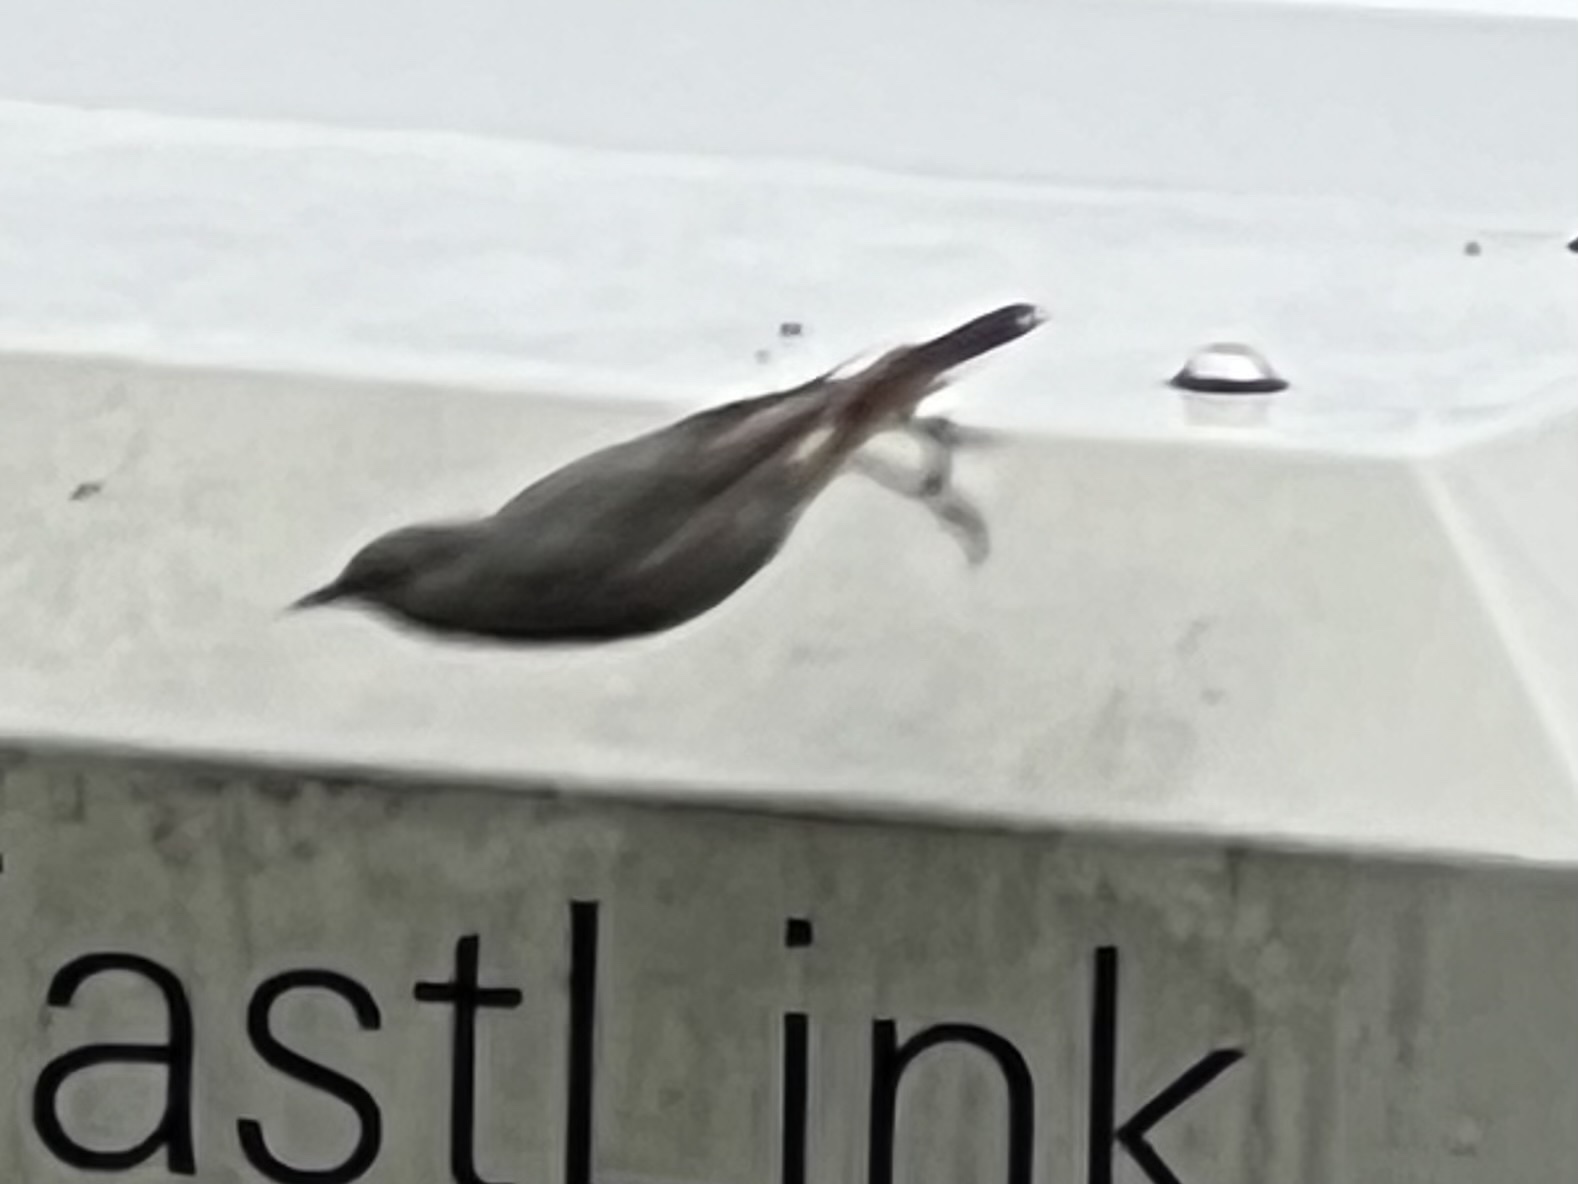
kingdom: Animalia
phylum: Chordata
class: Aves
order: Passeriformes
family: Muscicapidae
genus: Phoenicurus
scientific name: Phoenicurus ochruros
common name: Black redstart
